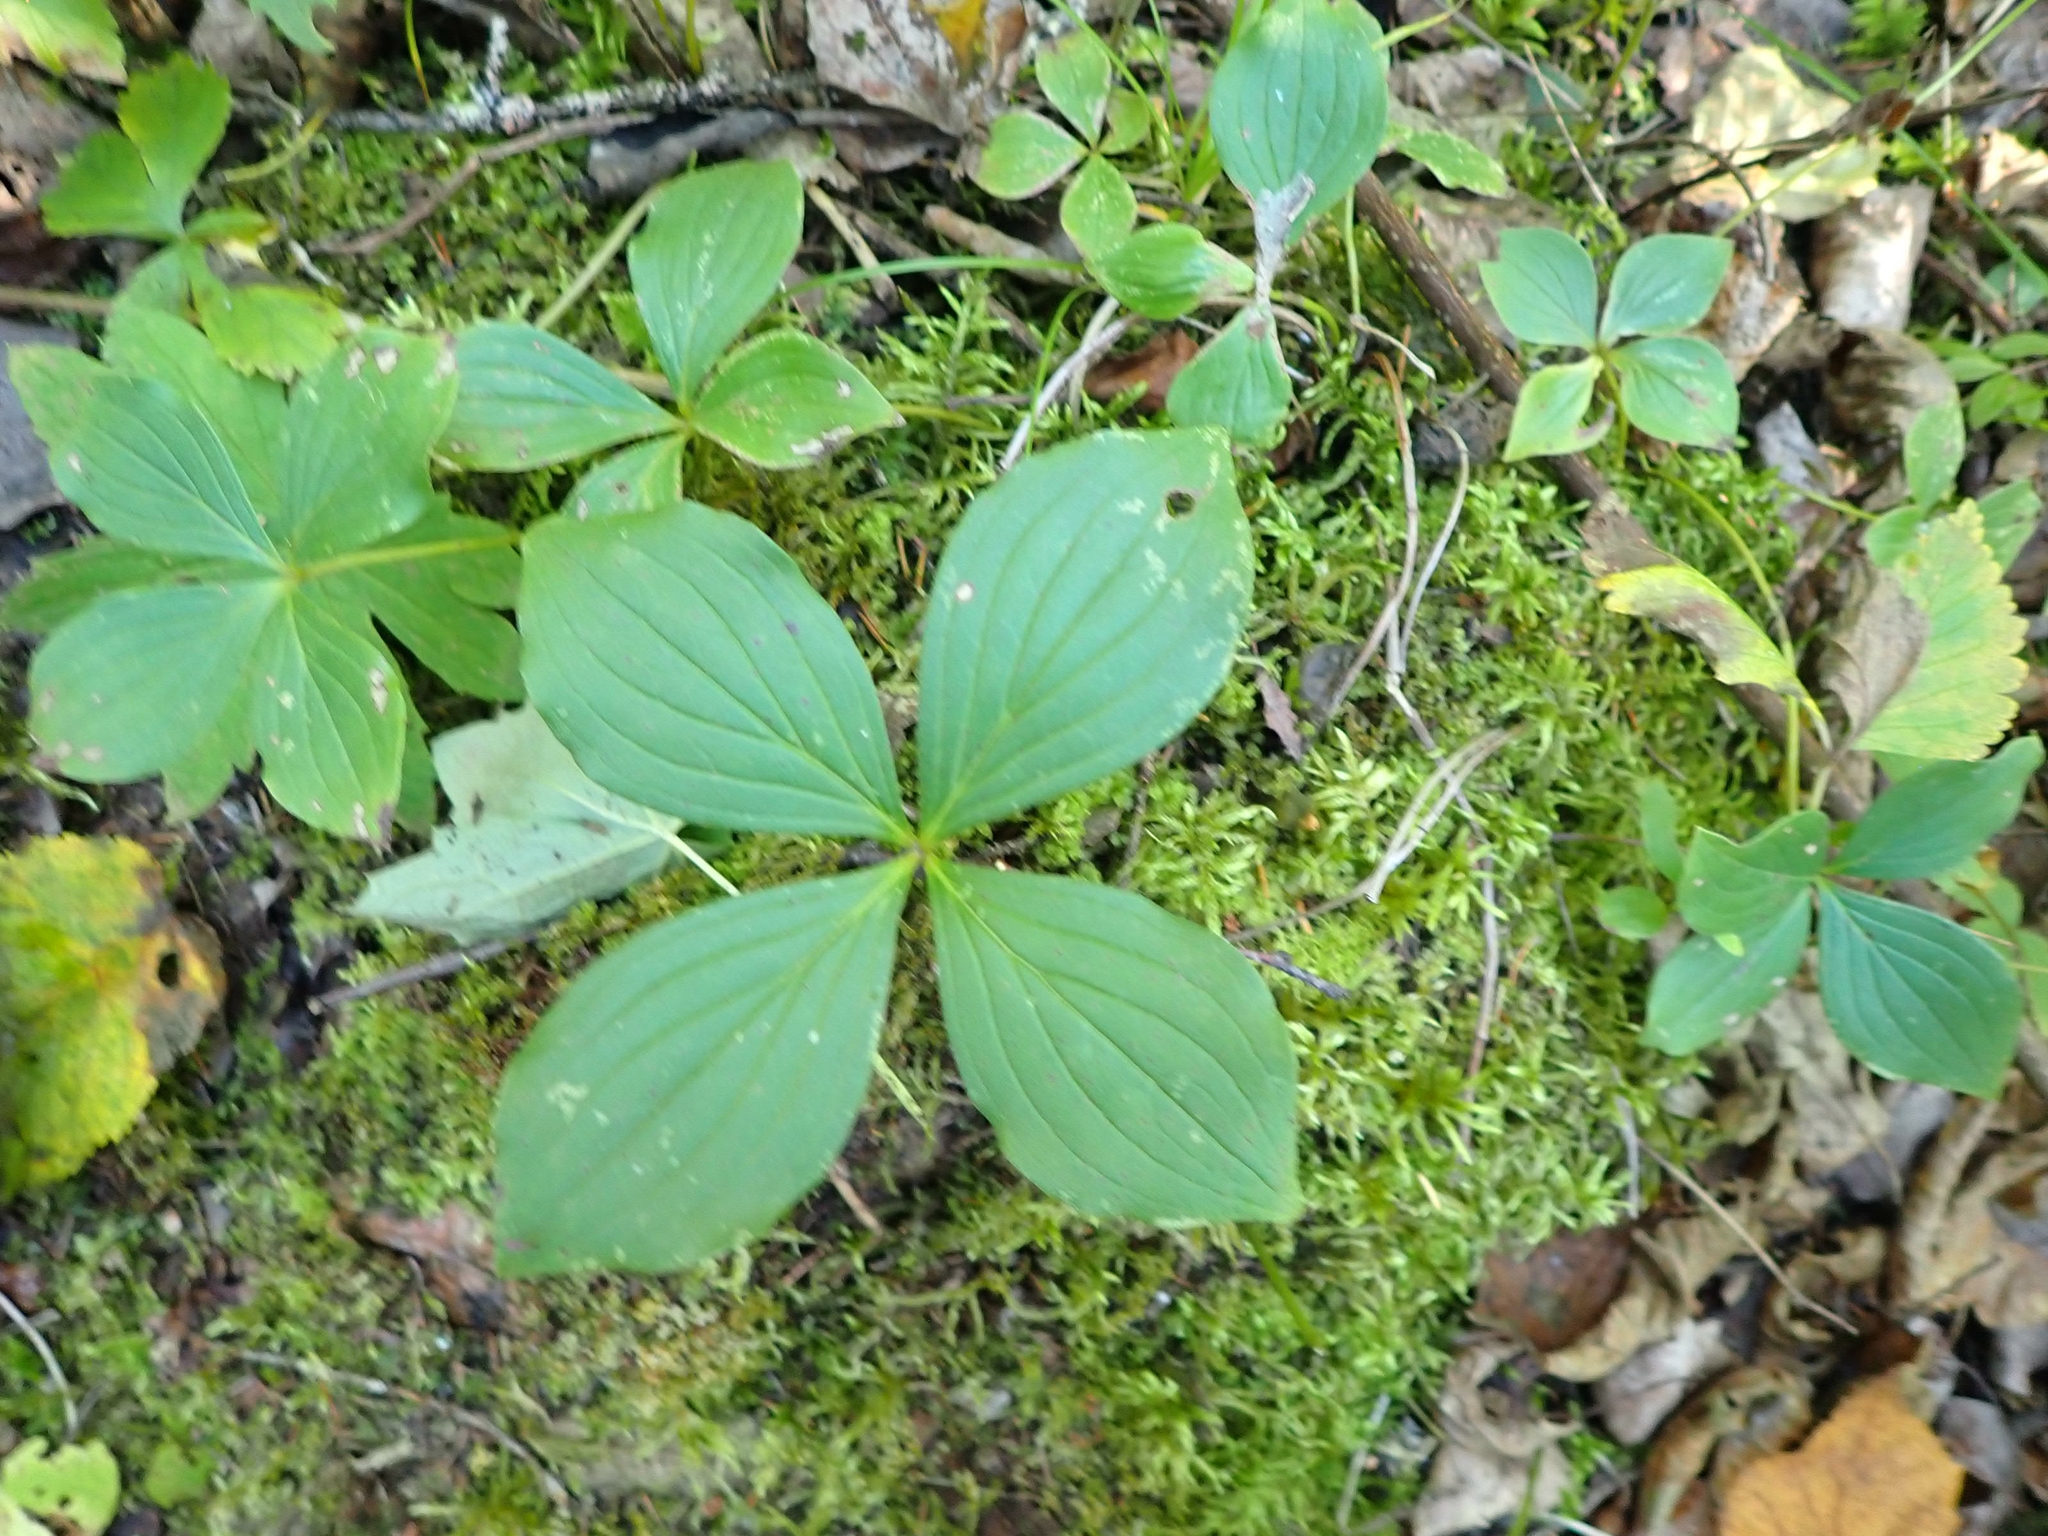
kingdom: Plantae
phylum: Tracheophyta
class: Magnoliopsida
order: Cornales
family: Cornaceae
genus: Cornus
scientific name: Cornus canadensis
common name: Creeping dogwood
